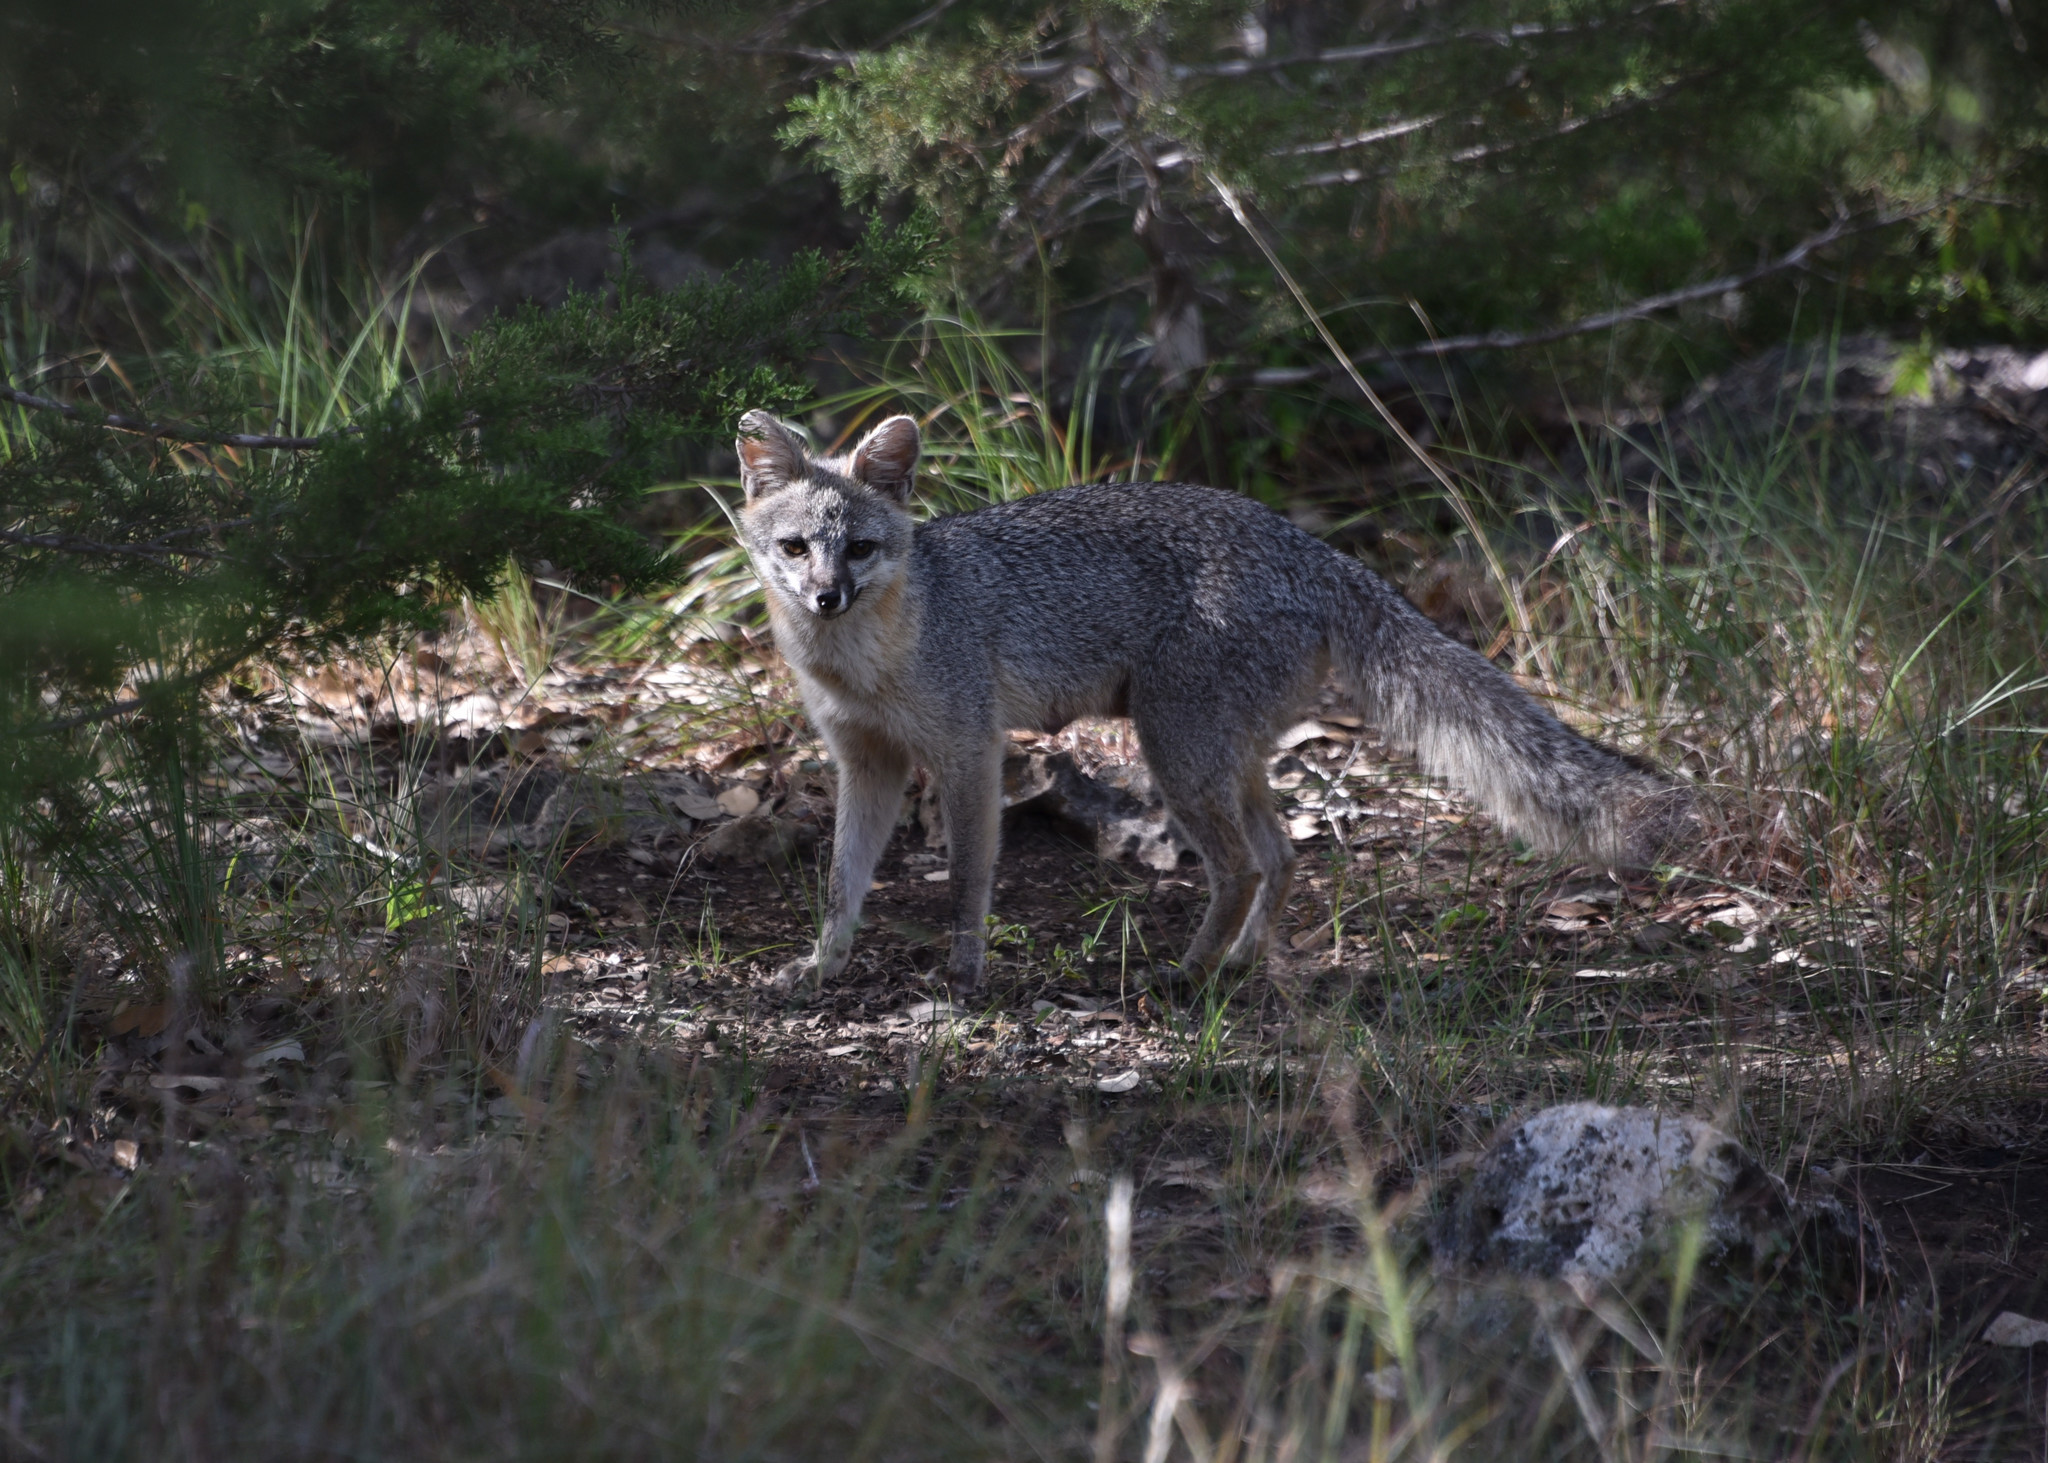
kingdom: Animalia
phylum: Chordata
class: Mammalia
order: Carnivora
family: Canidae
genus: Urocyon
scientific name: Urocyon cinereoargenteus
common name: Gray fox
